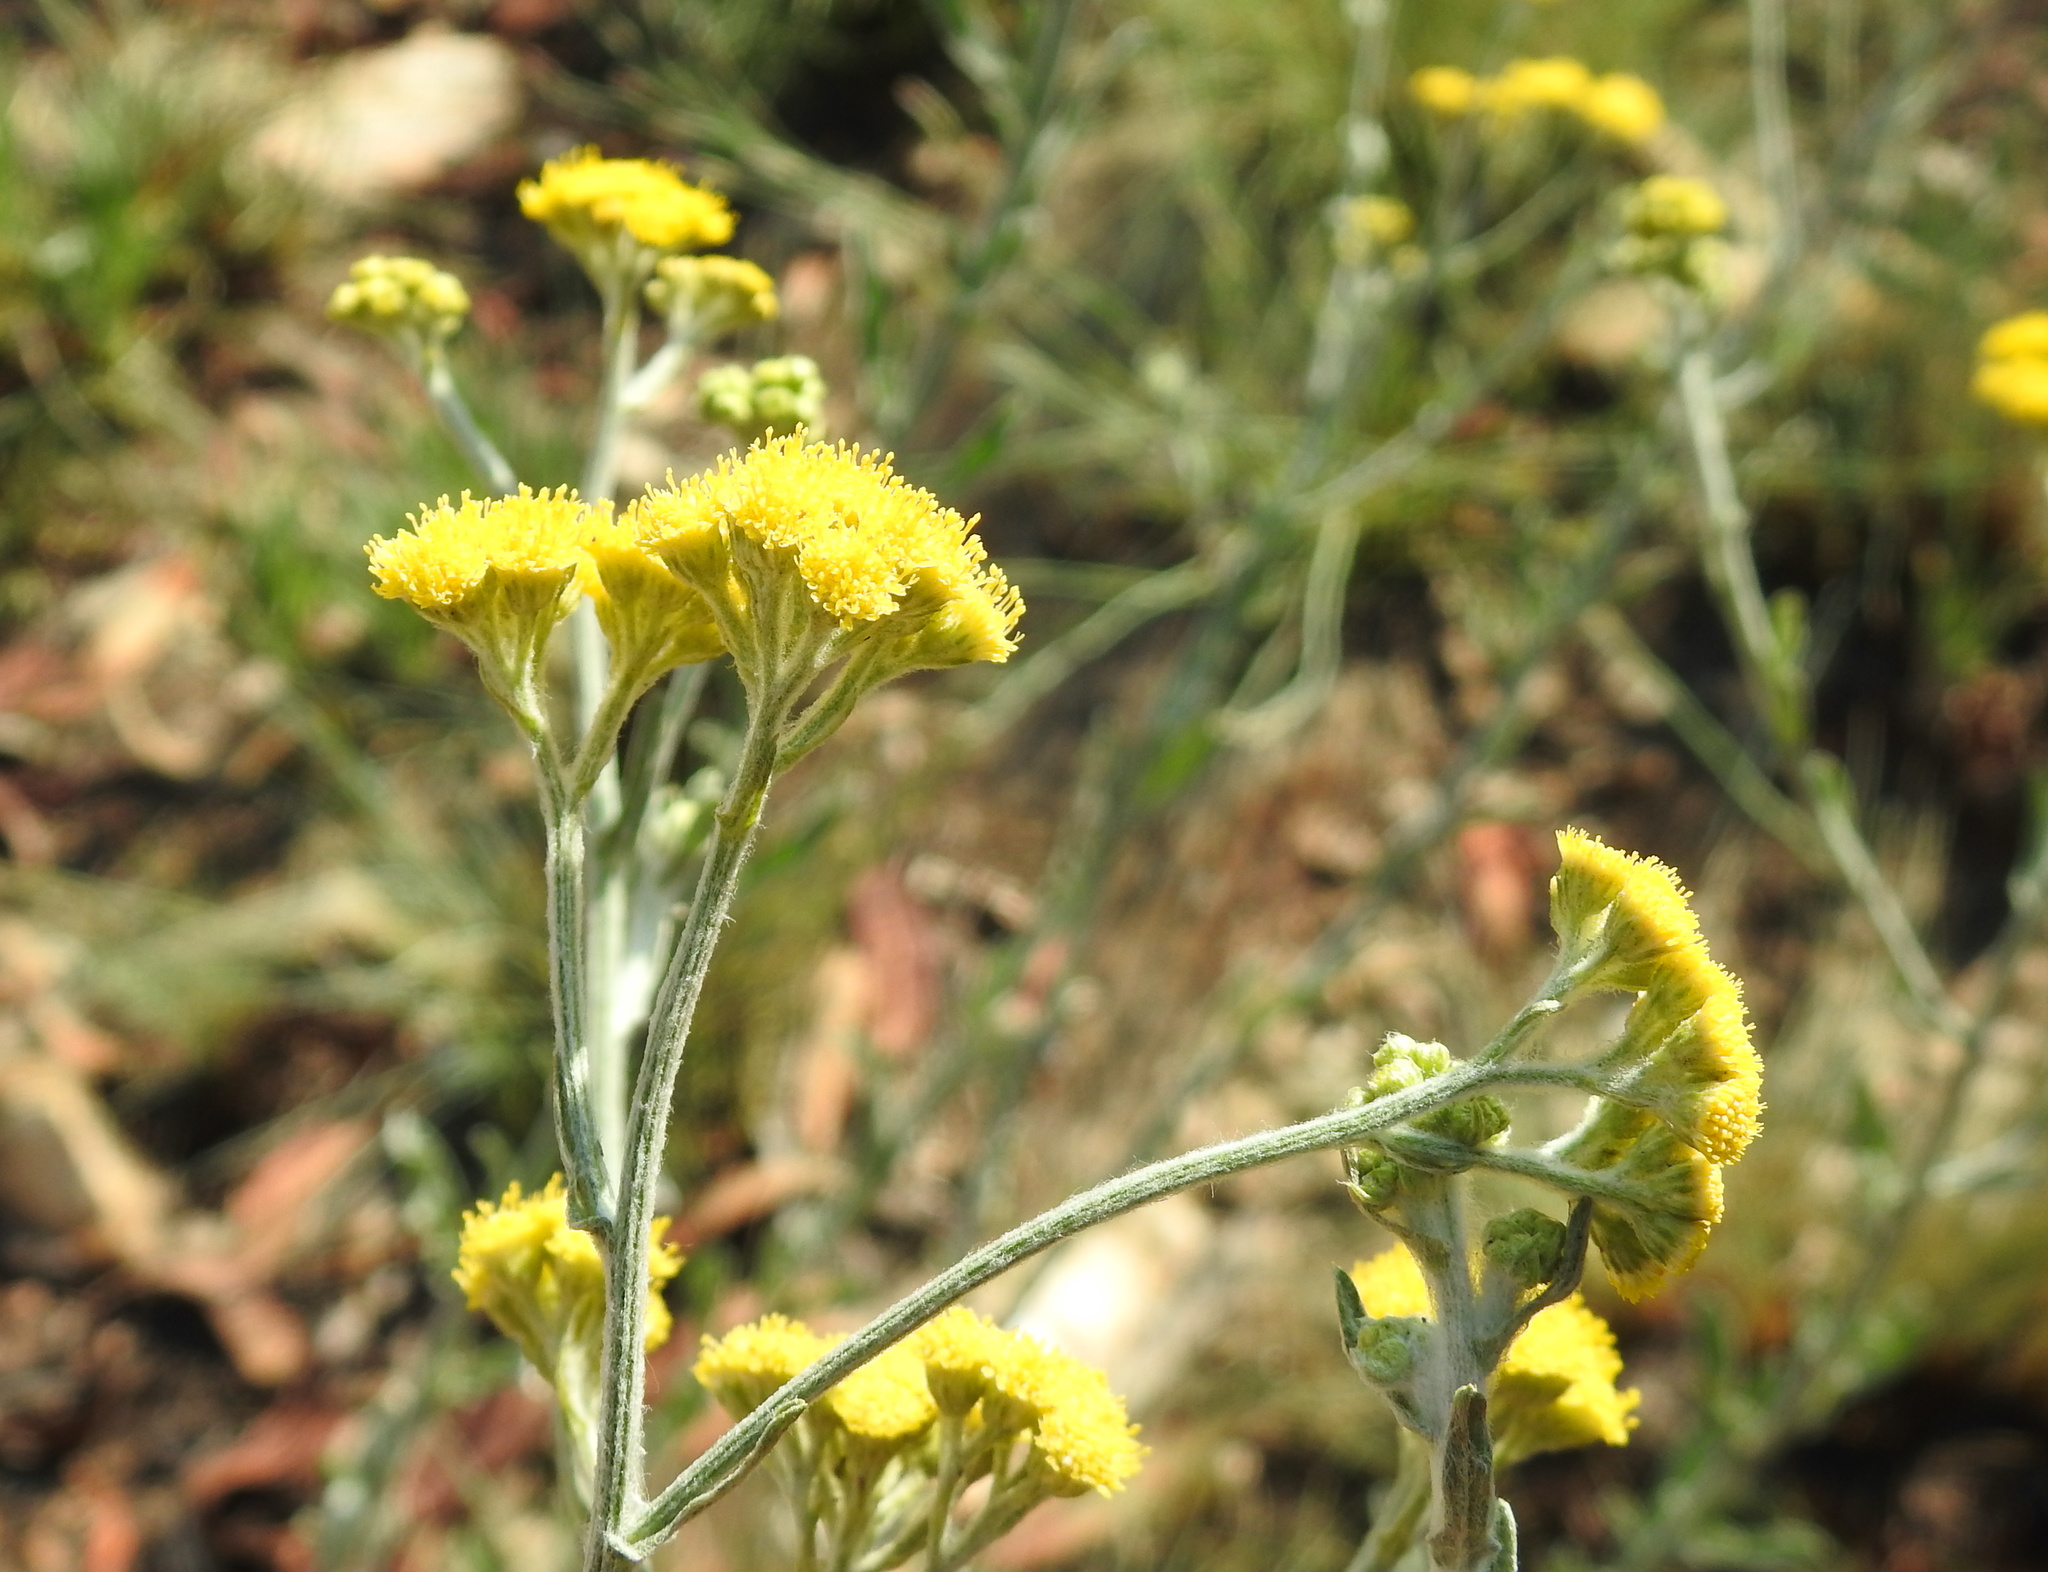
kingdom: Plantae
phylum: Tracheophyta
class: Magnoliopsida
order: Asterales
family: Asteraceae
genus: Nidorella
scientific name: Nidorella hottentotica
